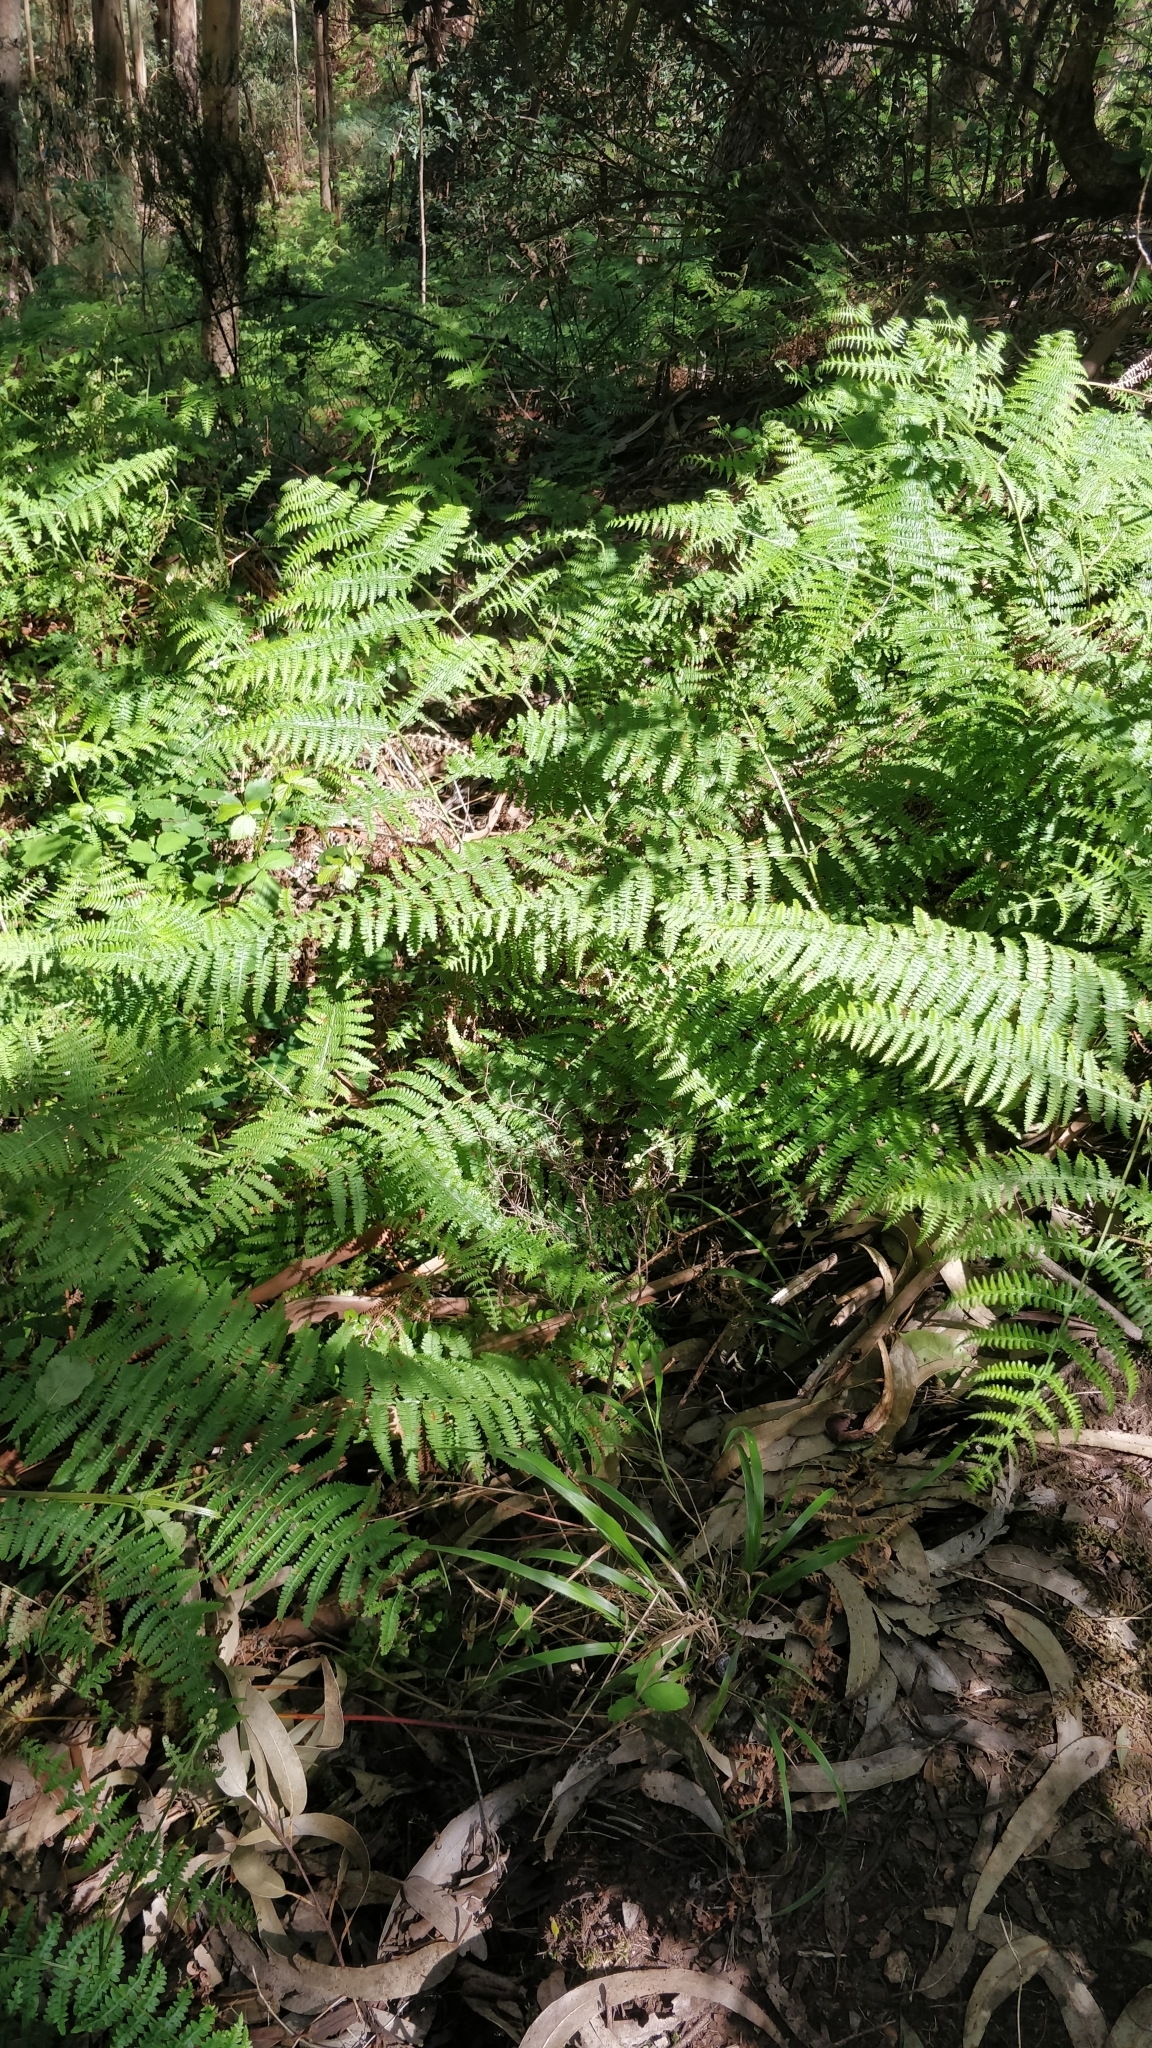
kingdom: Plantae
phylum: Tracheophyta
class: Polypodiopsida
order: Polypodiales
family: Dennstaedtiaceae
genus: Pteridium
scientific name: Pteridium aquilinum
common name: Bracken
